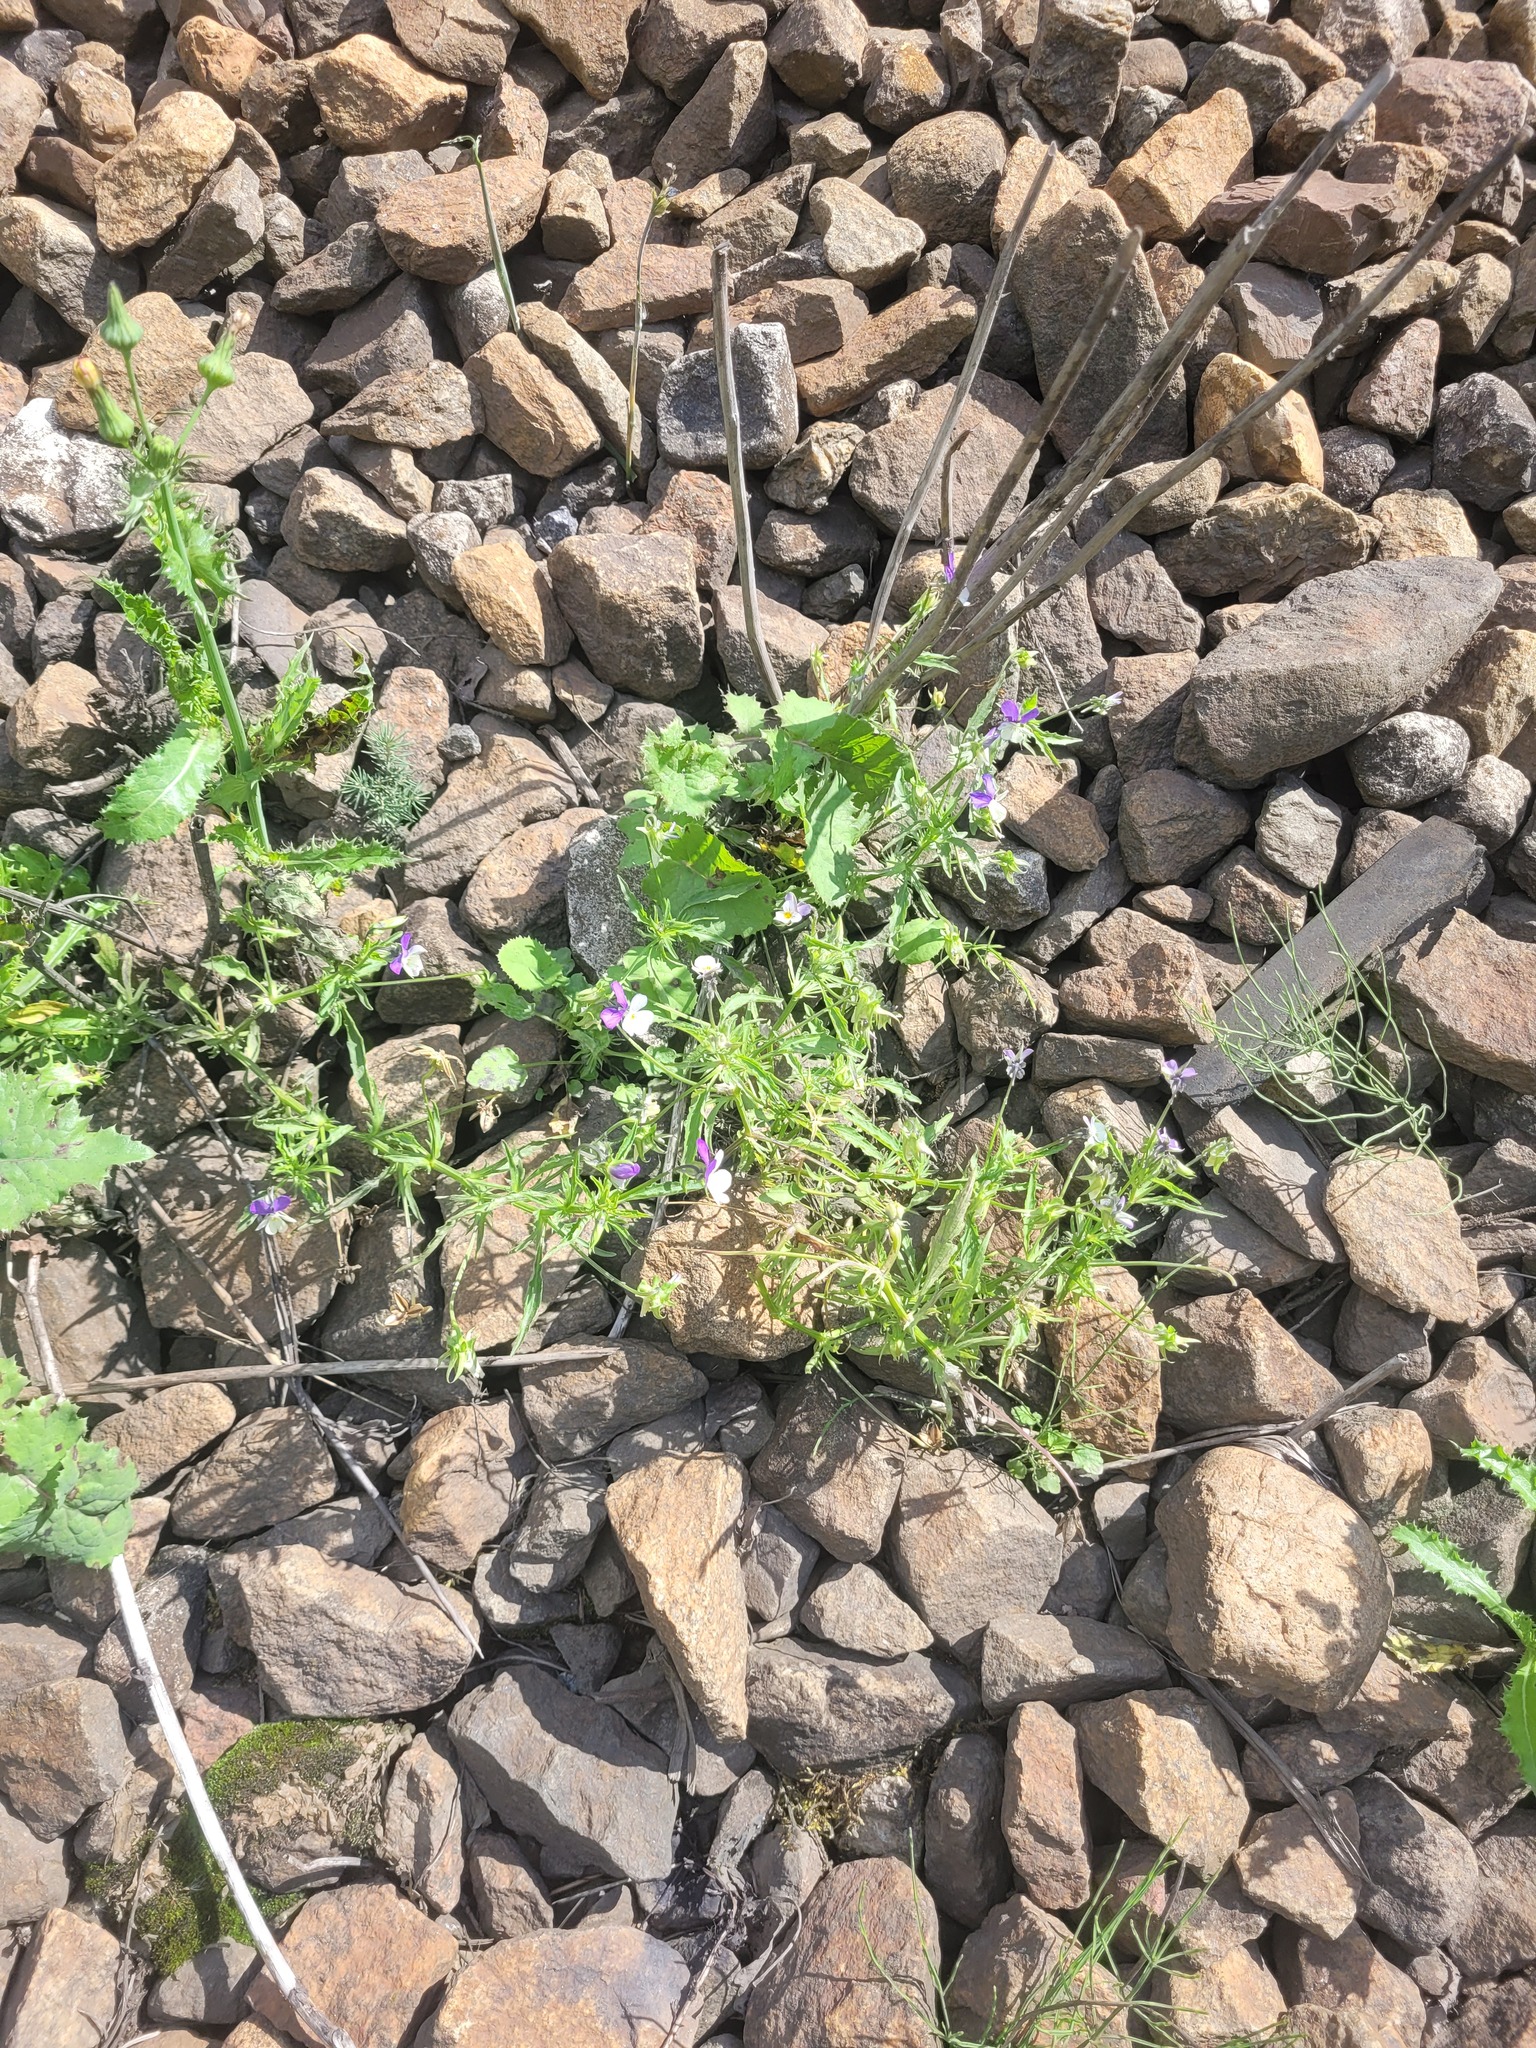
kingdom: Plantae
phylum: Tracheophyta
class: Magnoliopsida
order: Malpighiales
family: Violaceae
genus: Viola
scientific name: Viola tricolor
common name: Pansy
